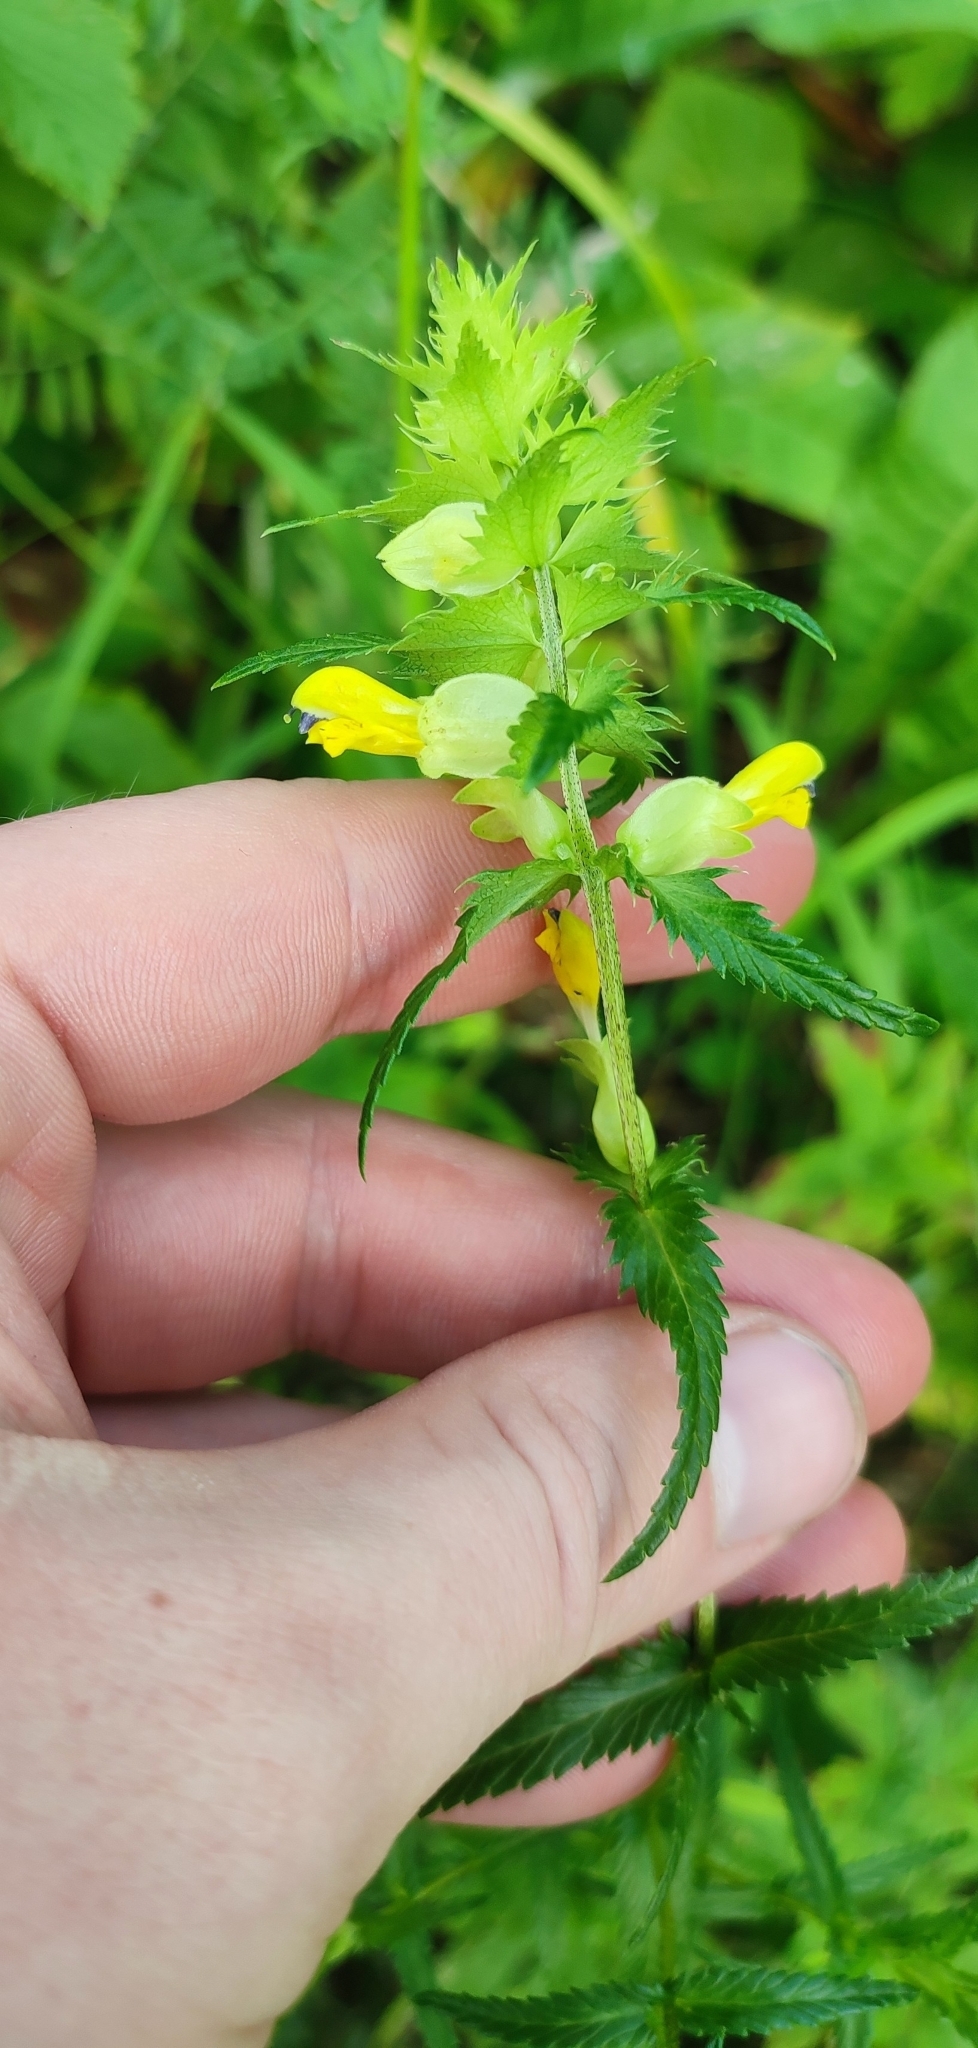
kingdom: Plantae
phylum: Tracheophyta
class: Magnoliopsida
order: Lamiales
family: Orobanchaceae
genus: Rhinanthus
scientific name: Rhinanthus serotinus
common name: Late-flowering yellow rattle
